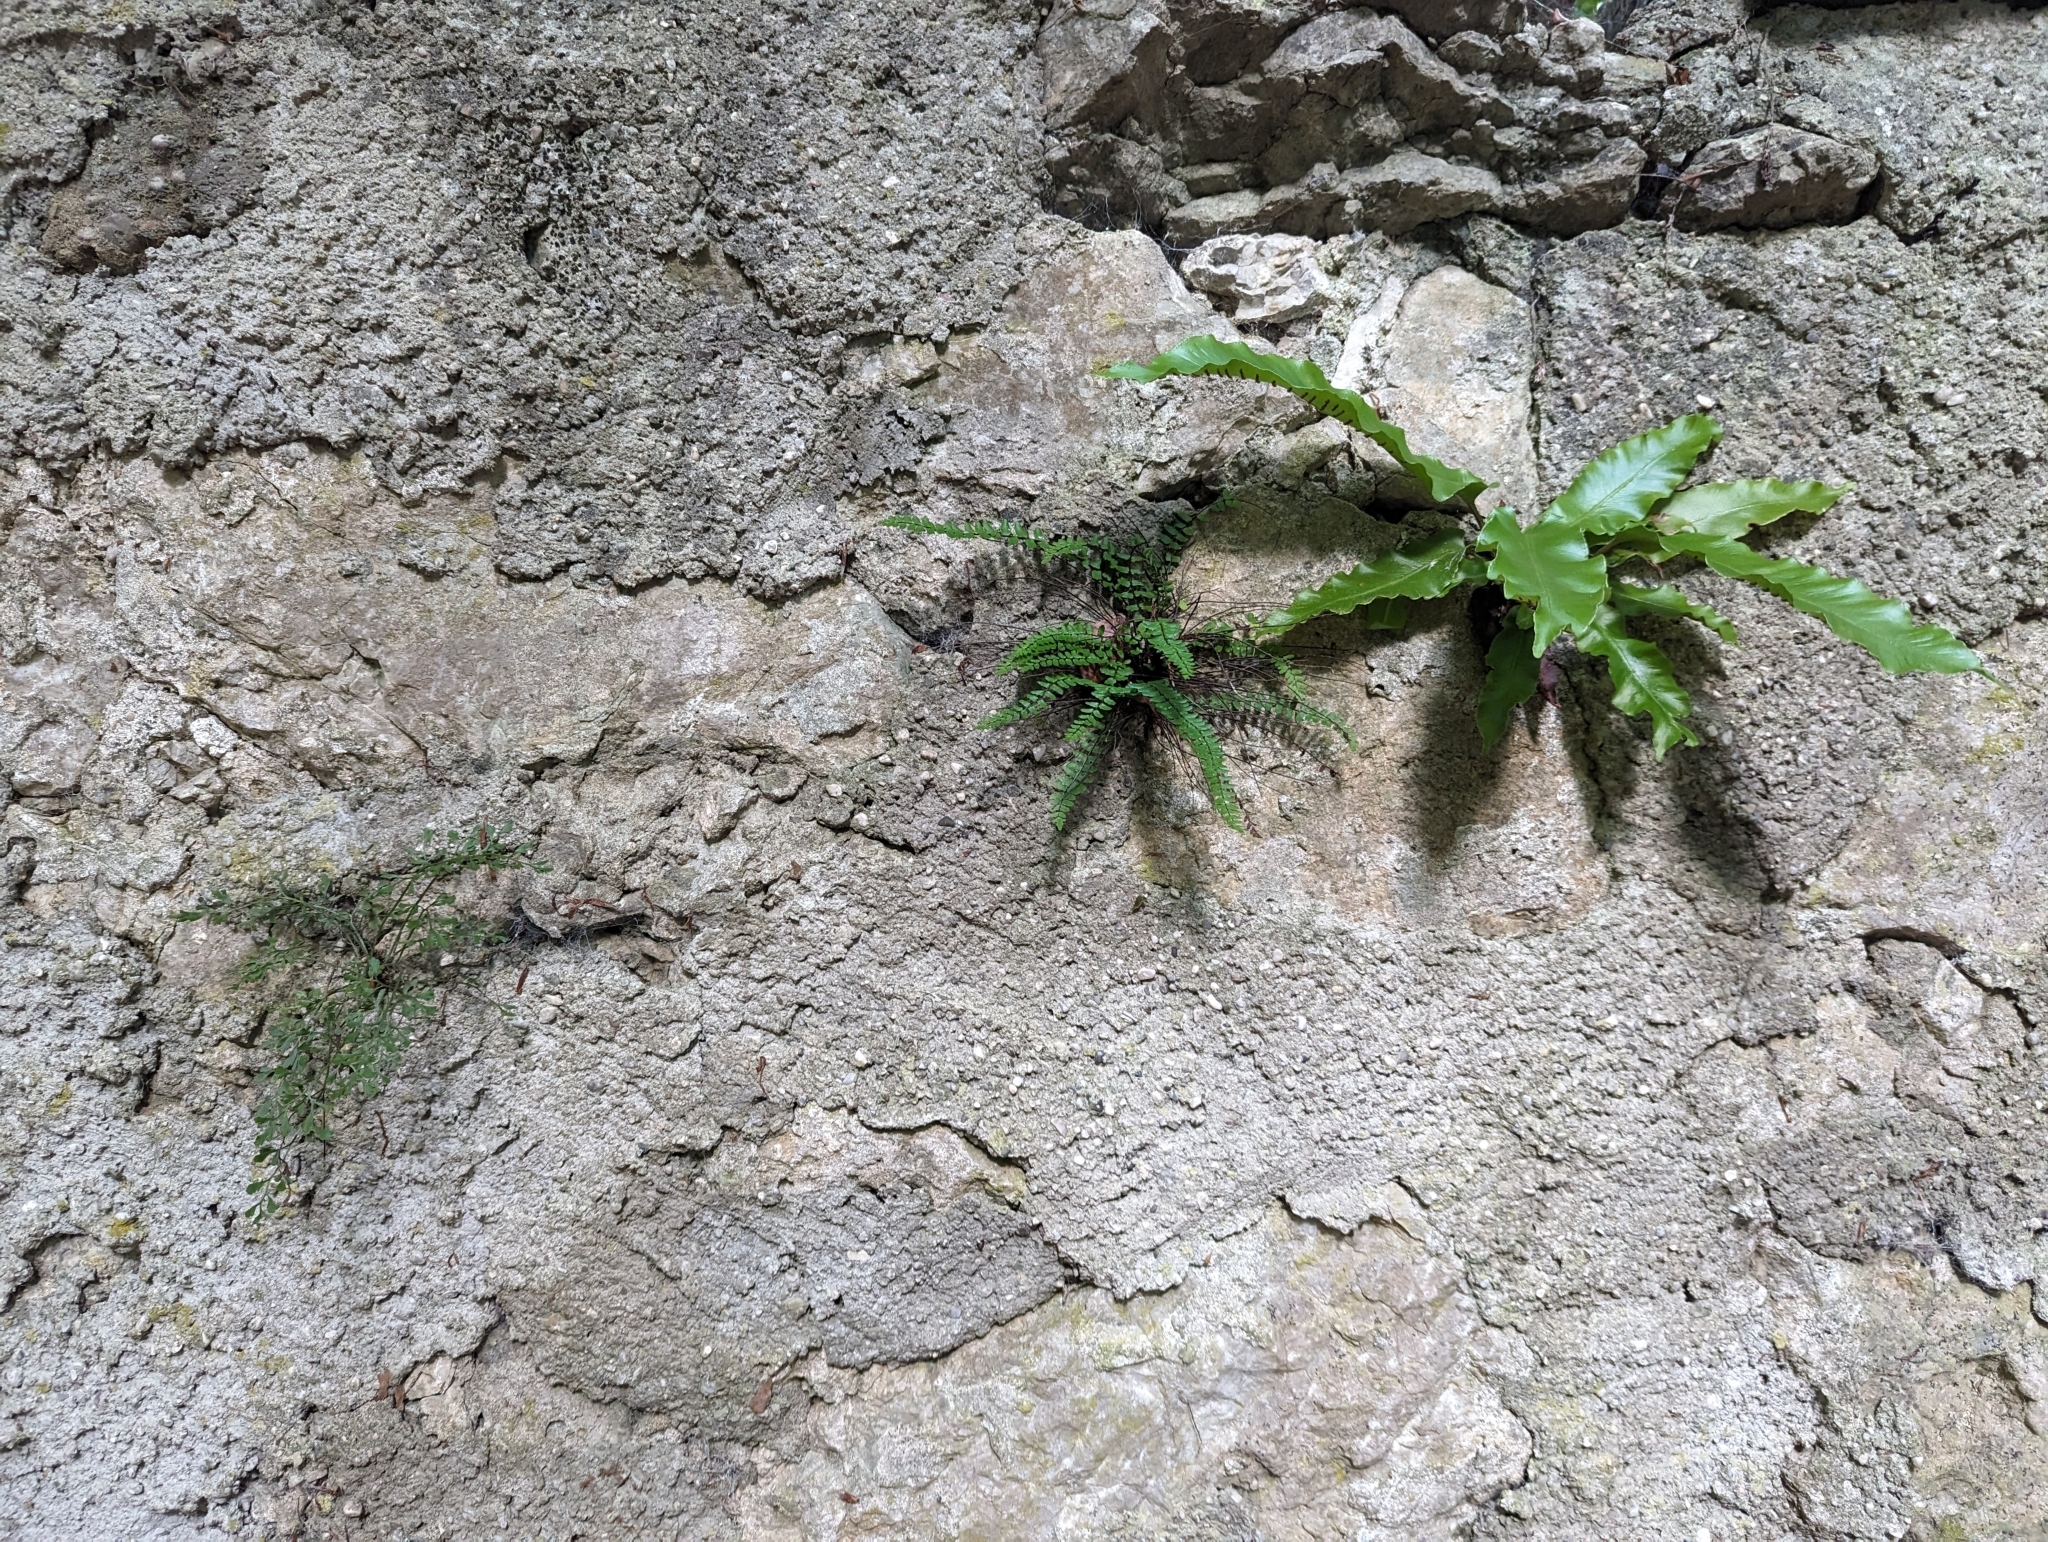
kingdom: Plantae
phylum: Tracheophyta
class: Polypodiopsida
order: Polypodiales
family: Aspleniaceae
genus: Asplenium
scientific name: Asplenium ruta-muraria
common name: Wall-rue
